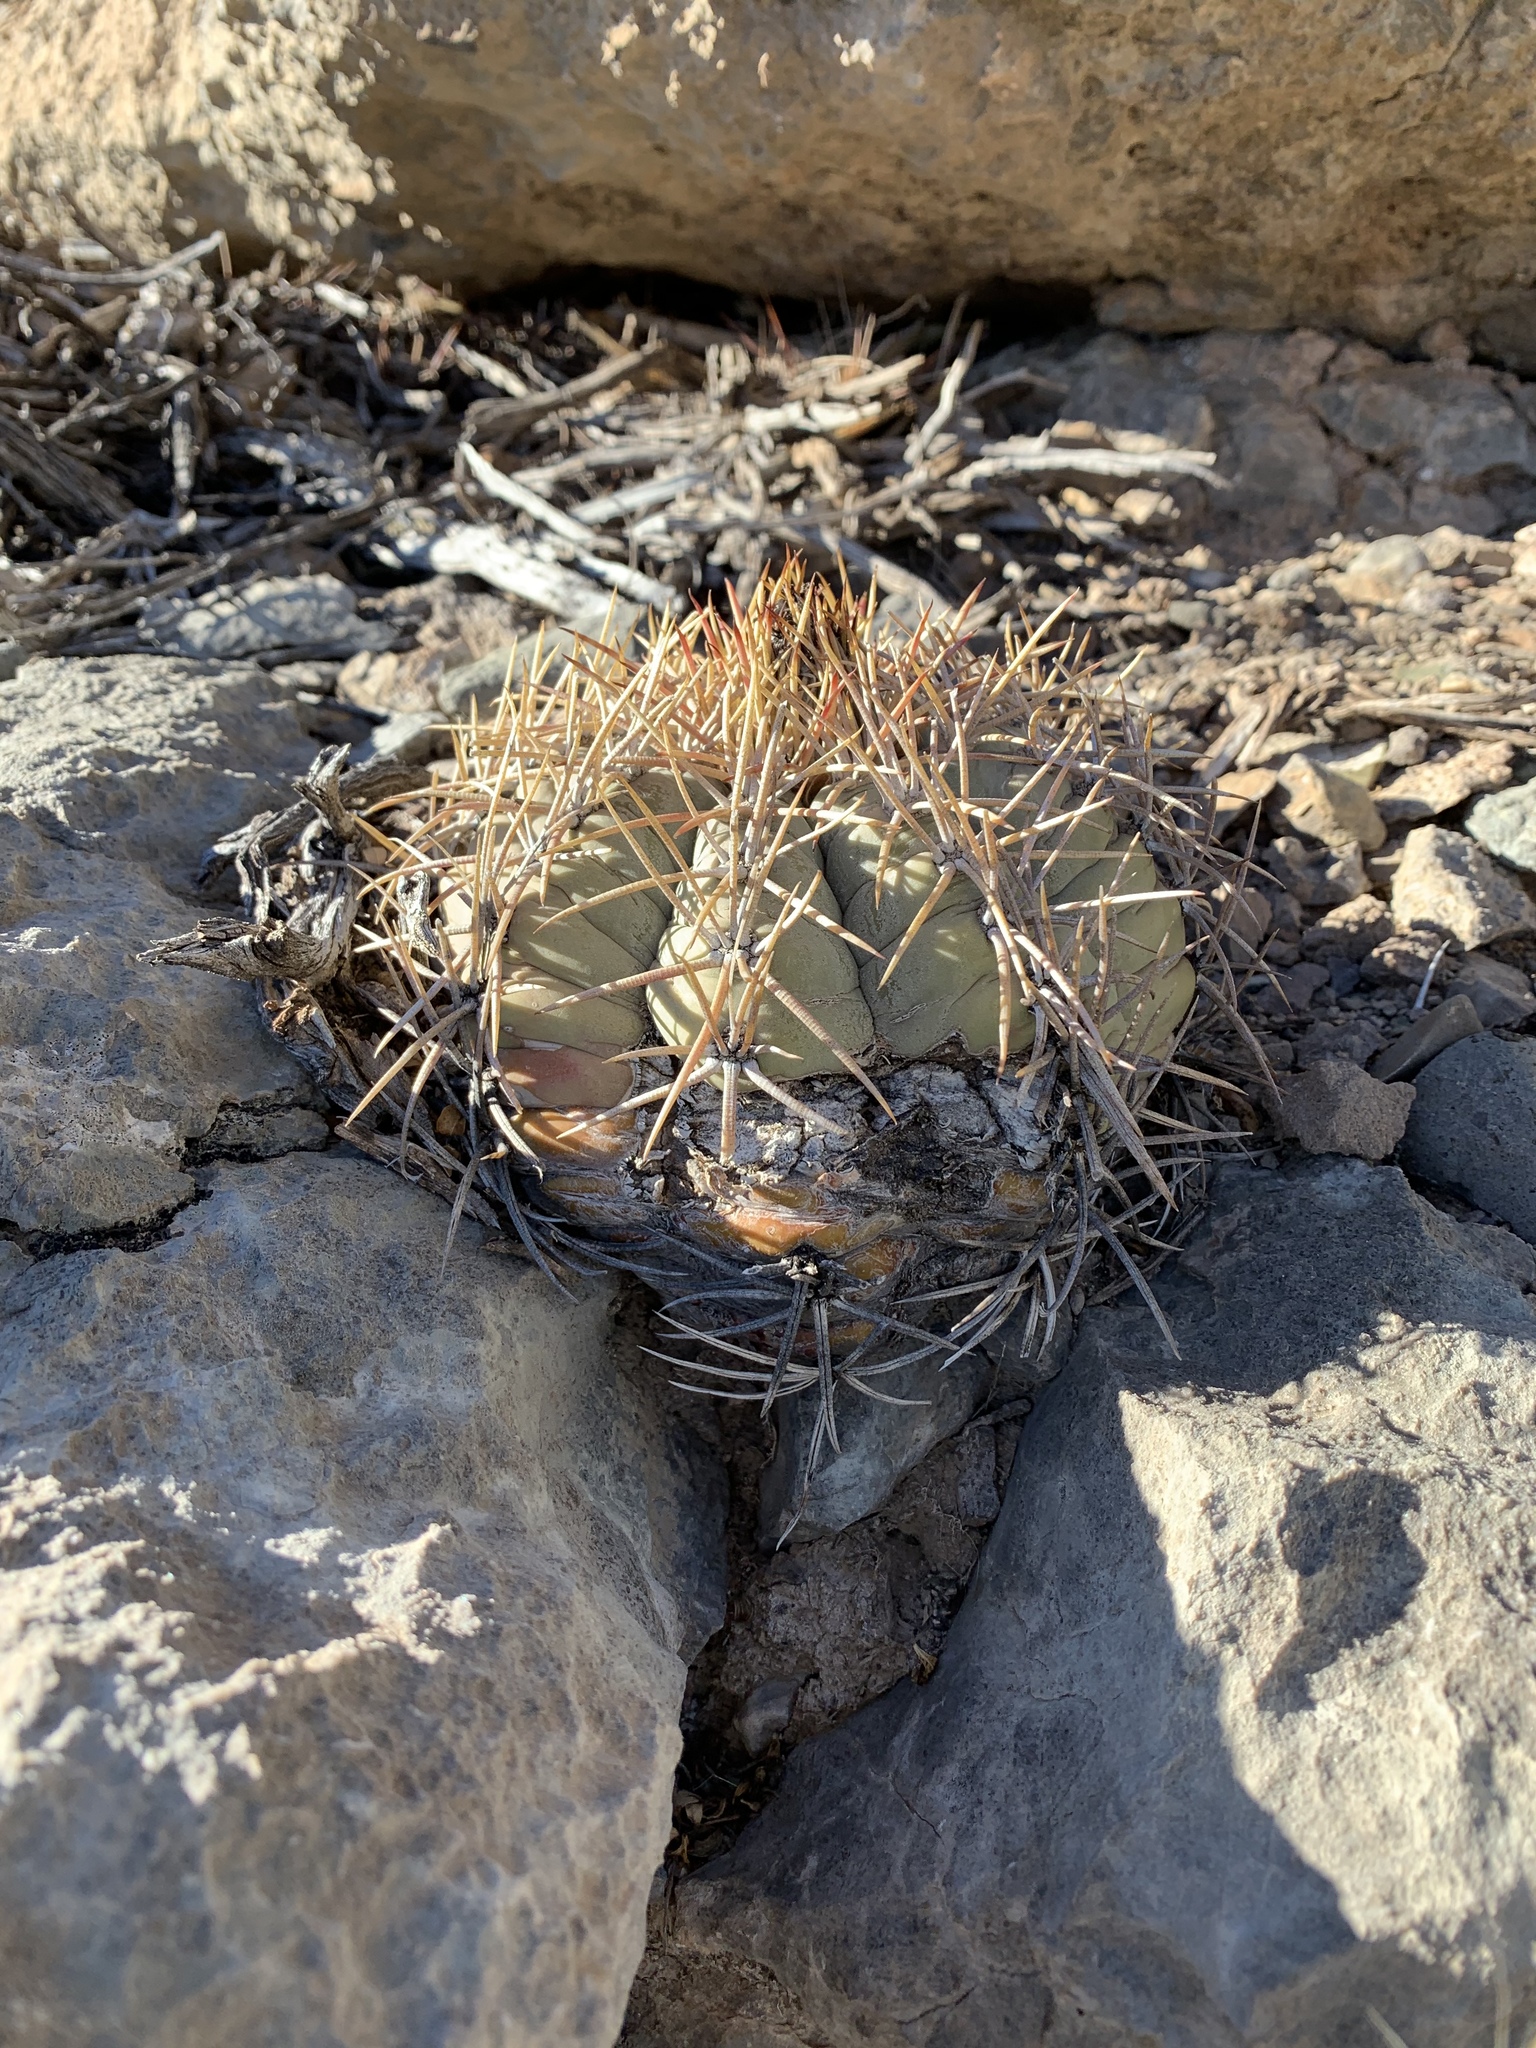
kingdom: Plantae
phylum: Tracheophyta
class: Magnoliopsida
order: Caryophyllales
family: Cactaceae
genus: Echinocactus
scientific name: Echinocactus horizonthalonius
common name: Devilshead
